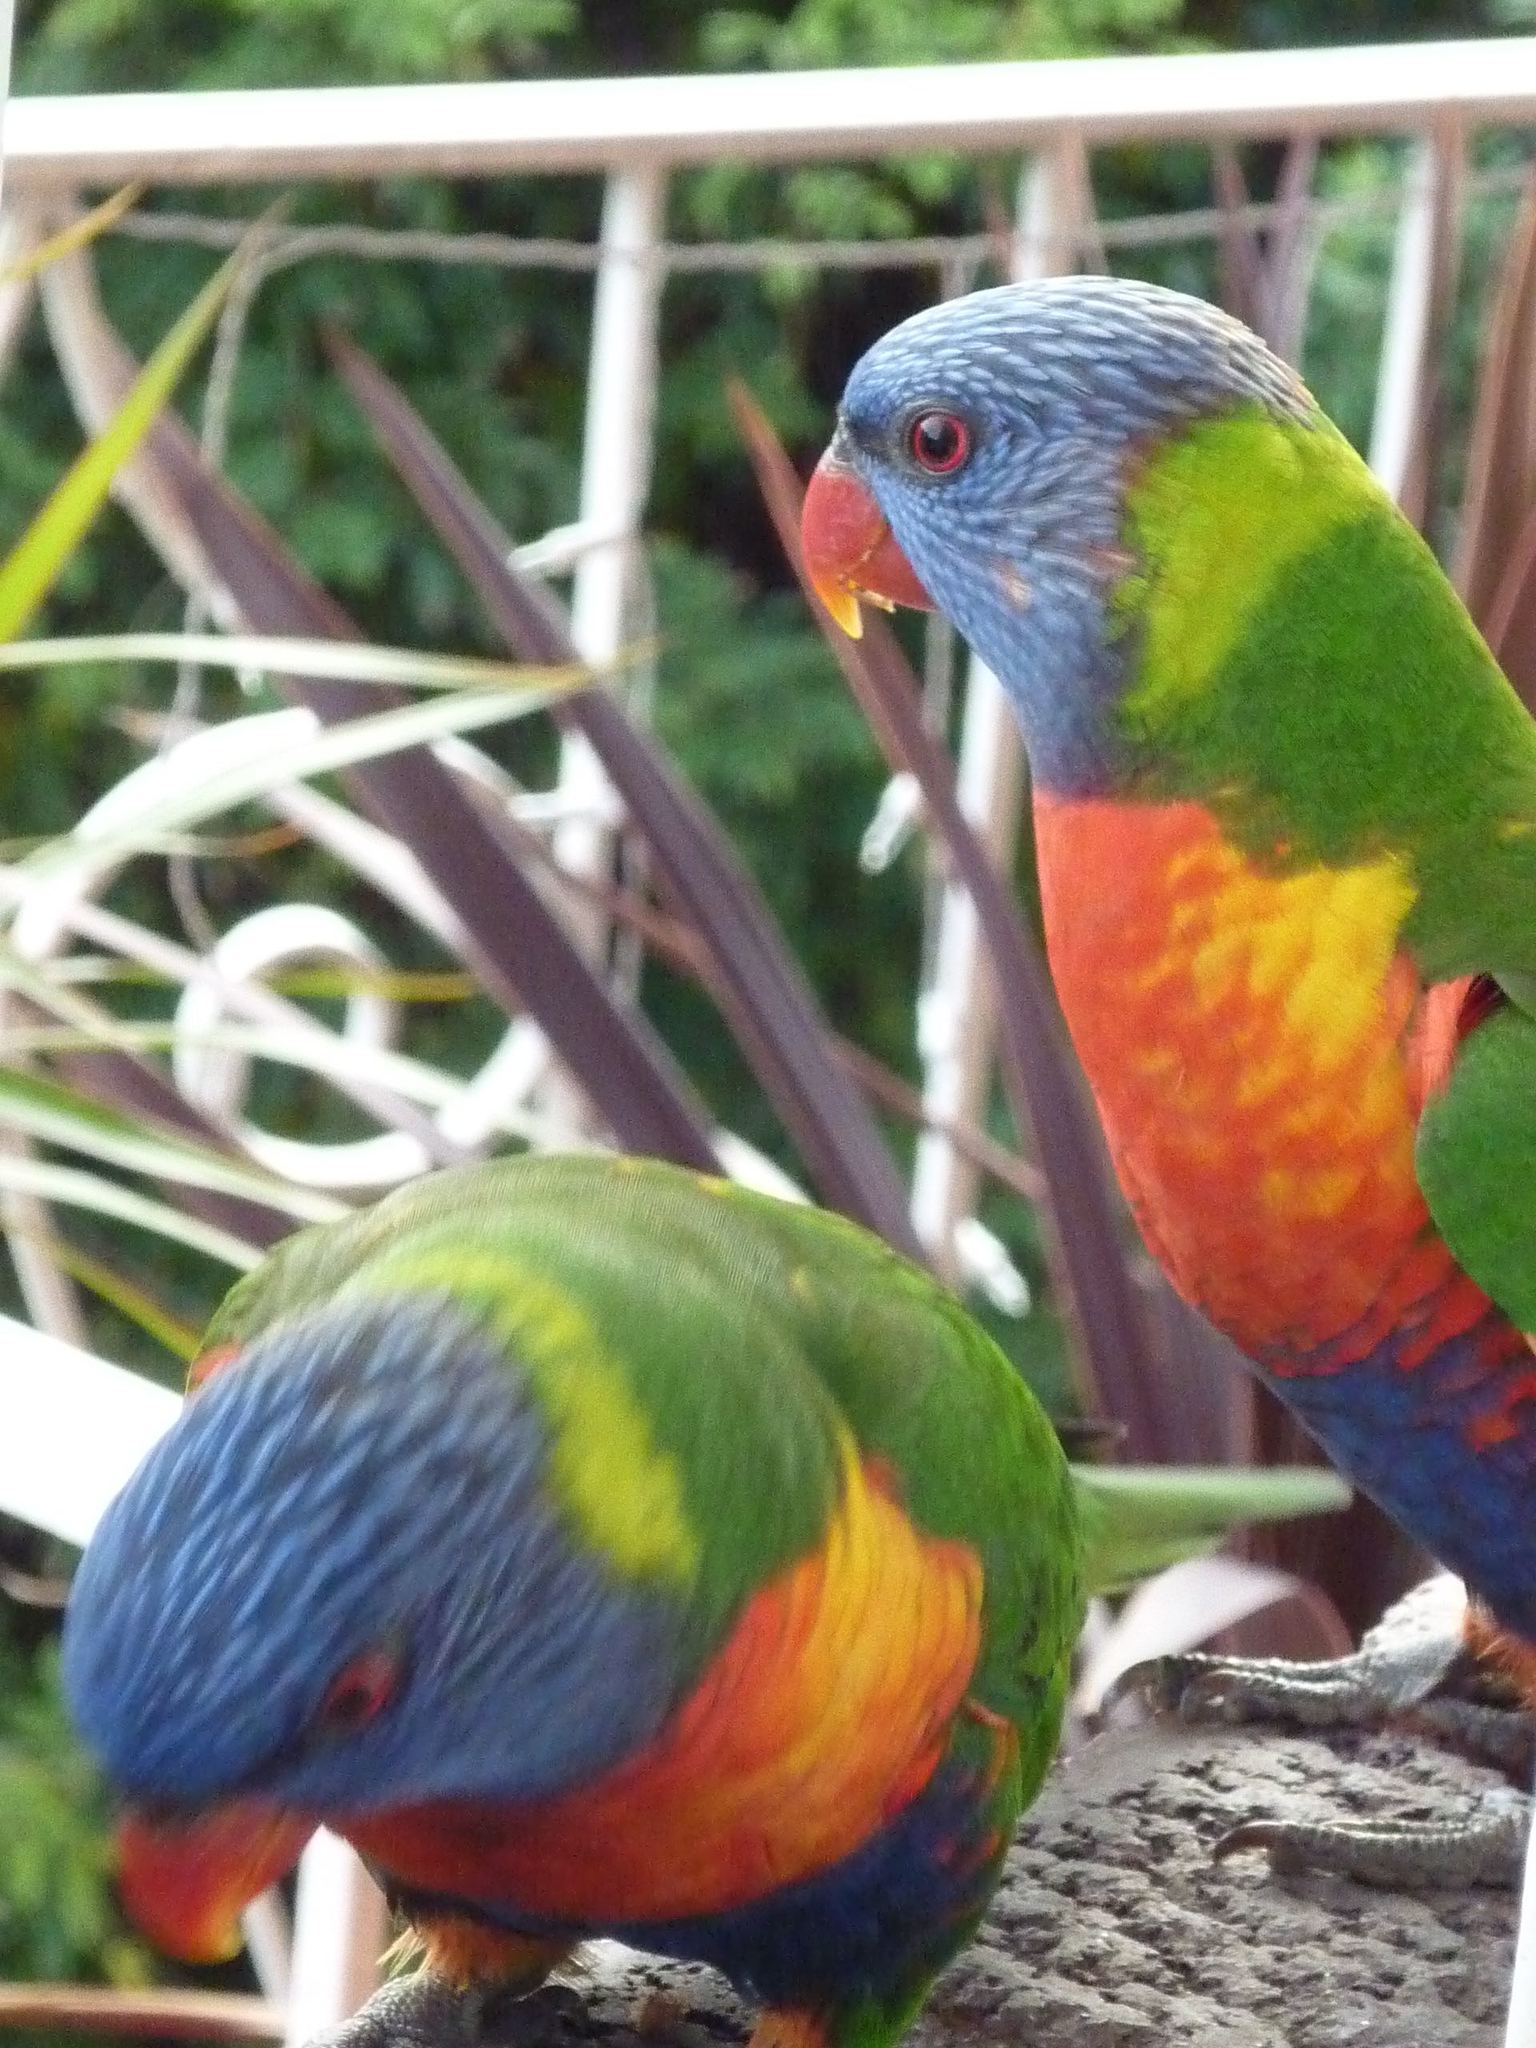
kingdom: Animalia
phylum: Chordata
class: Aves
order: Psittaciformes
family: Psittacidae
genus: Trichoglossus
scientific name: Trichoglossus haematodus
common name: Coconut lorikeet
